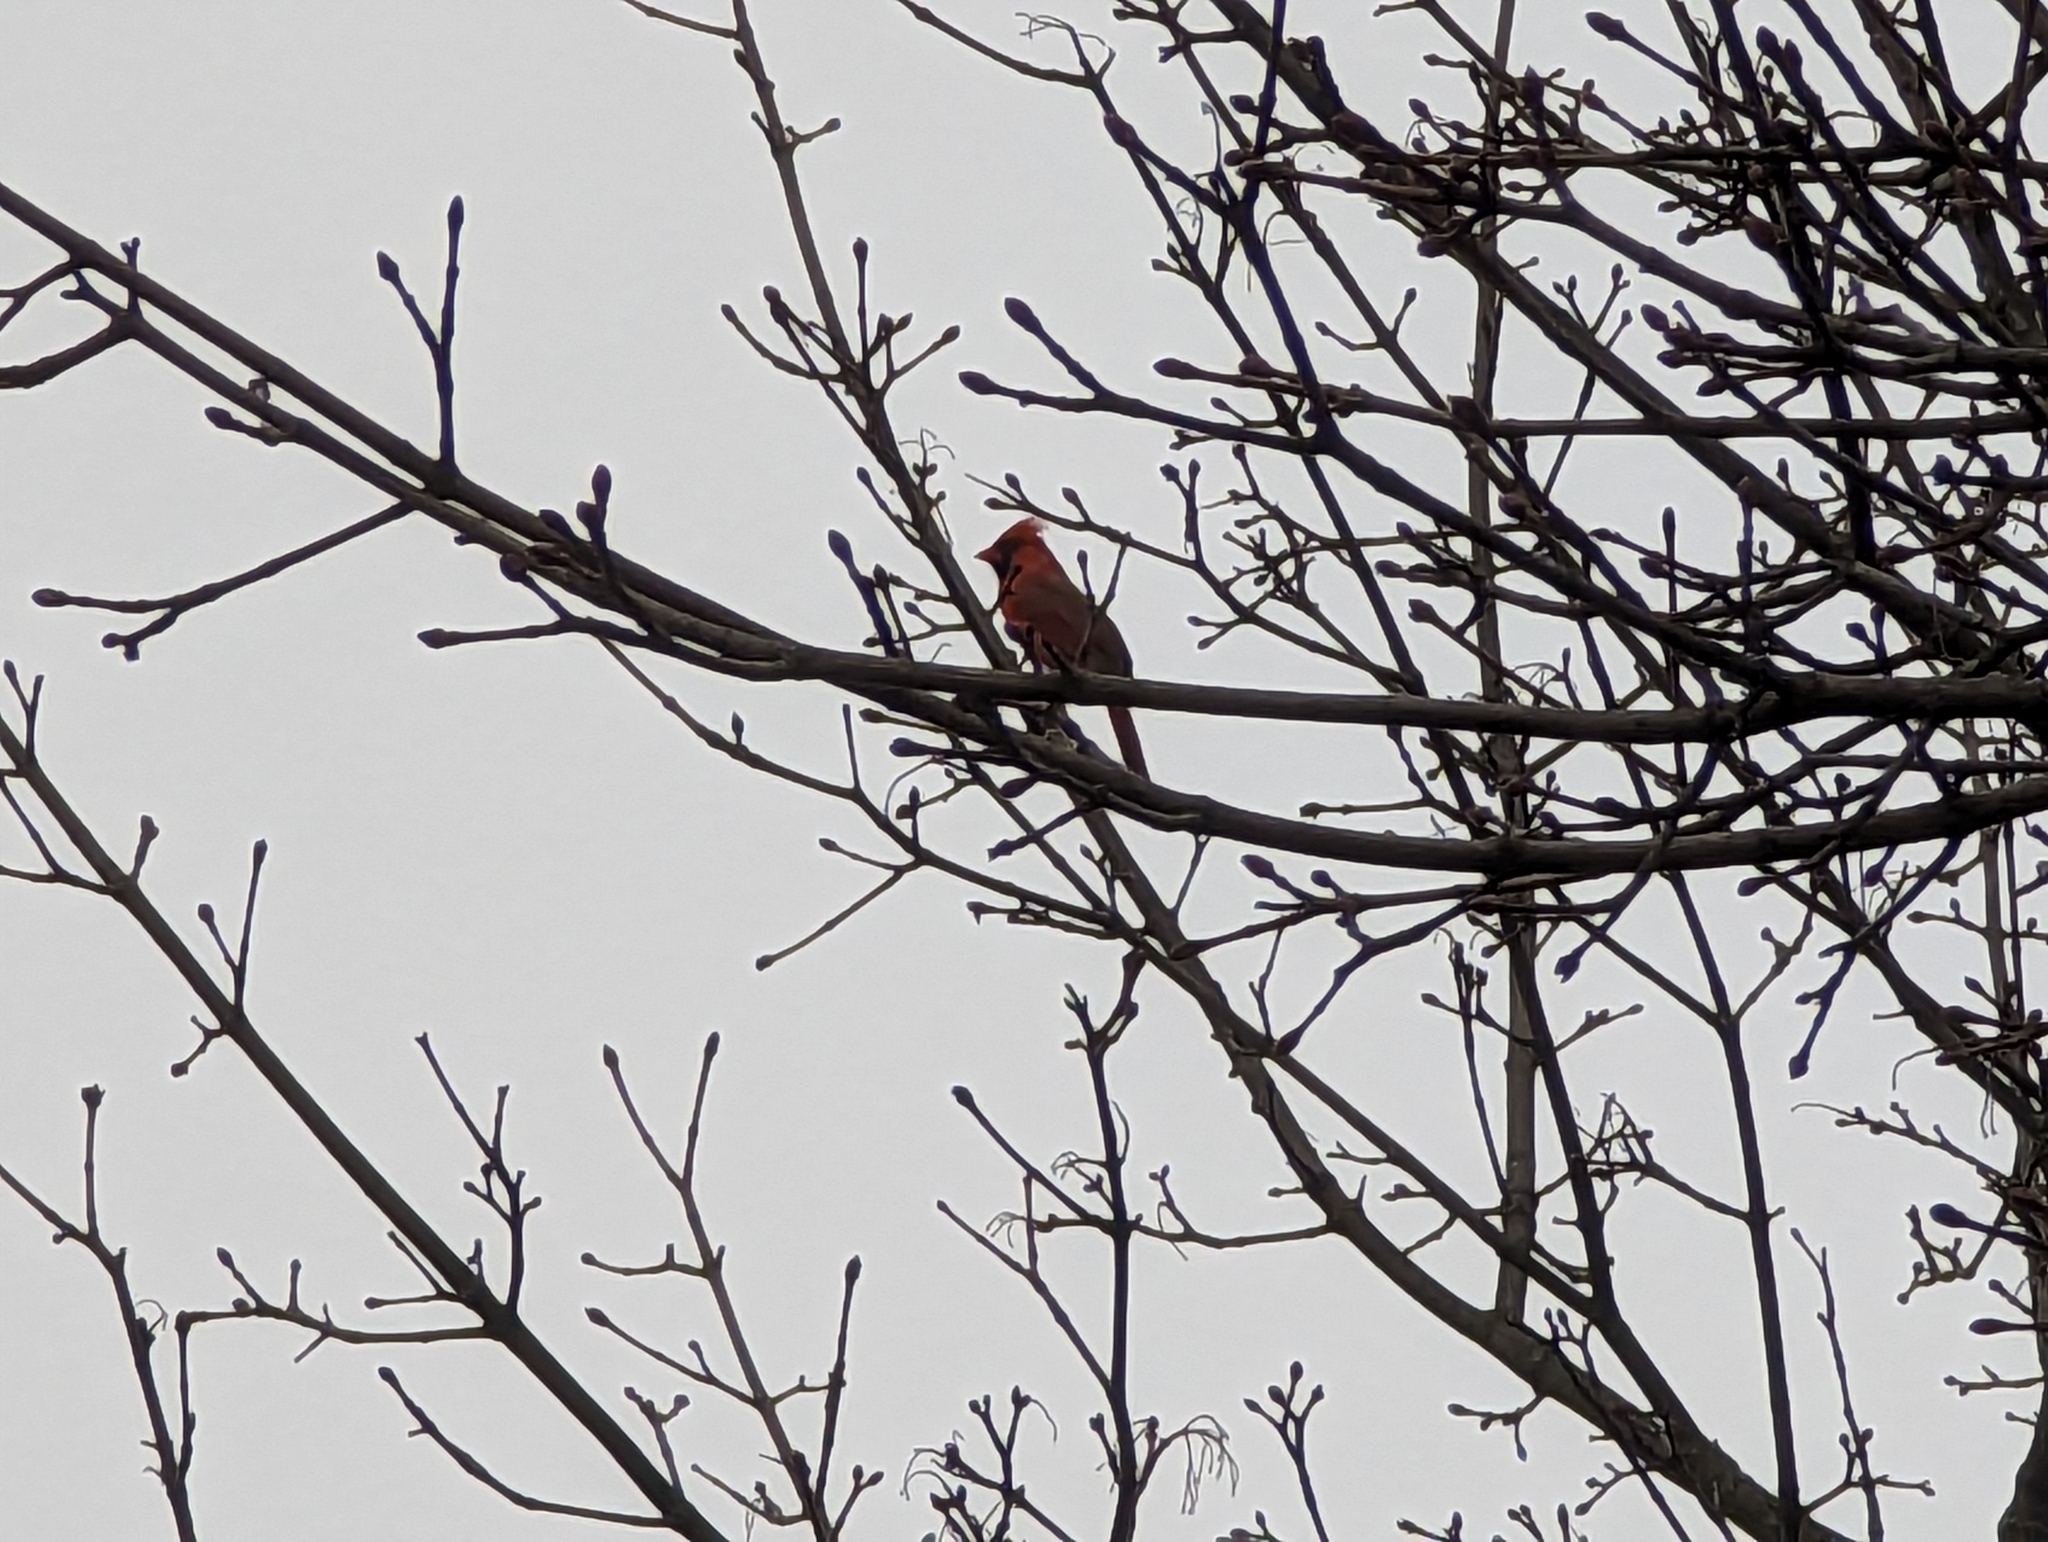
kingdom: Animalia
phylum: Chordata
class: Aves
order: Passeriformes
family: Cardinalidae
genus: Cardinalis
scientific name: Cardinalis cardinalis
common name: Northern cardinal
